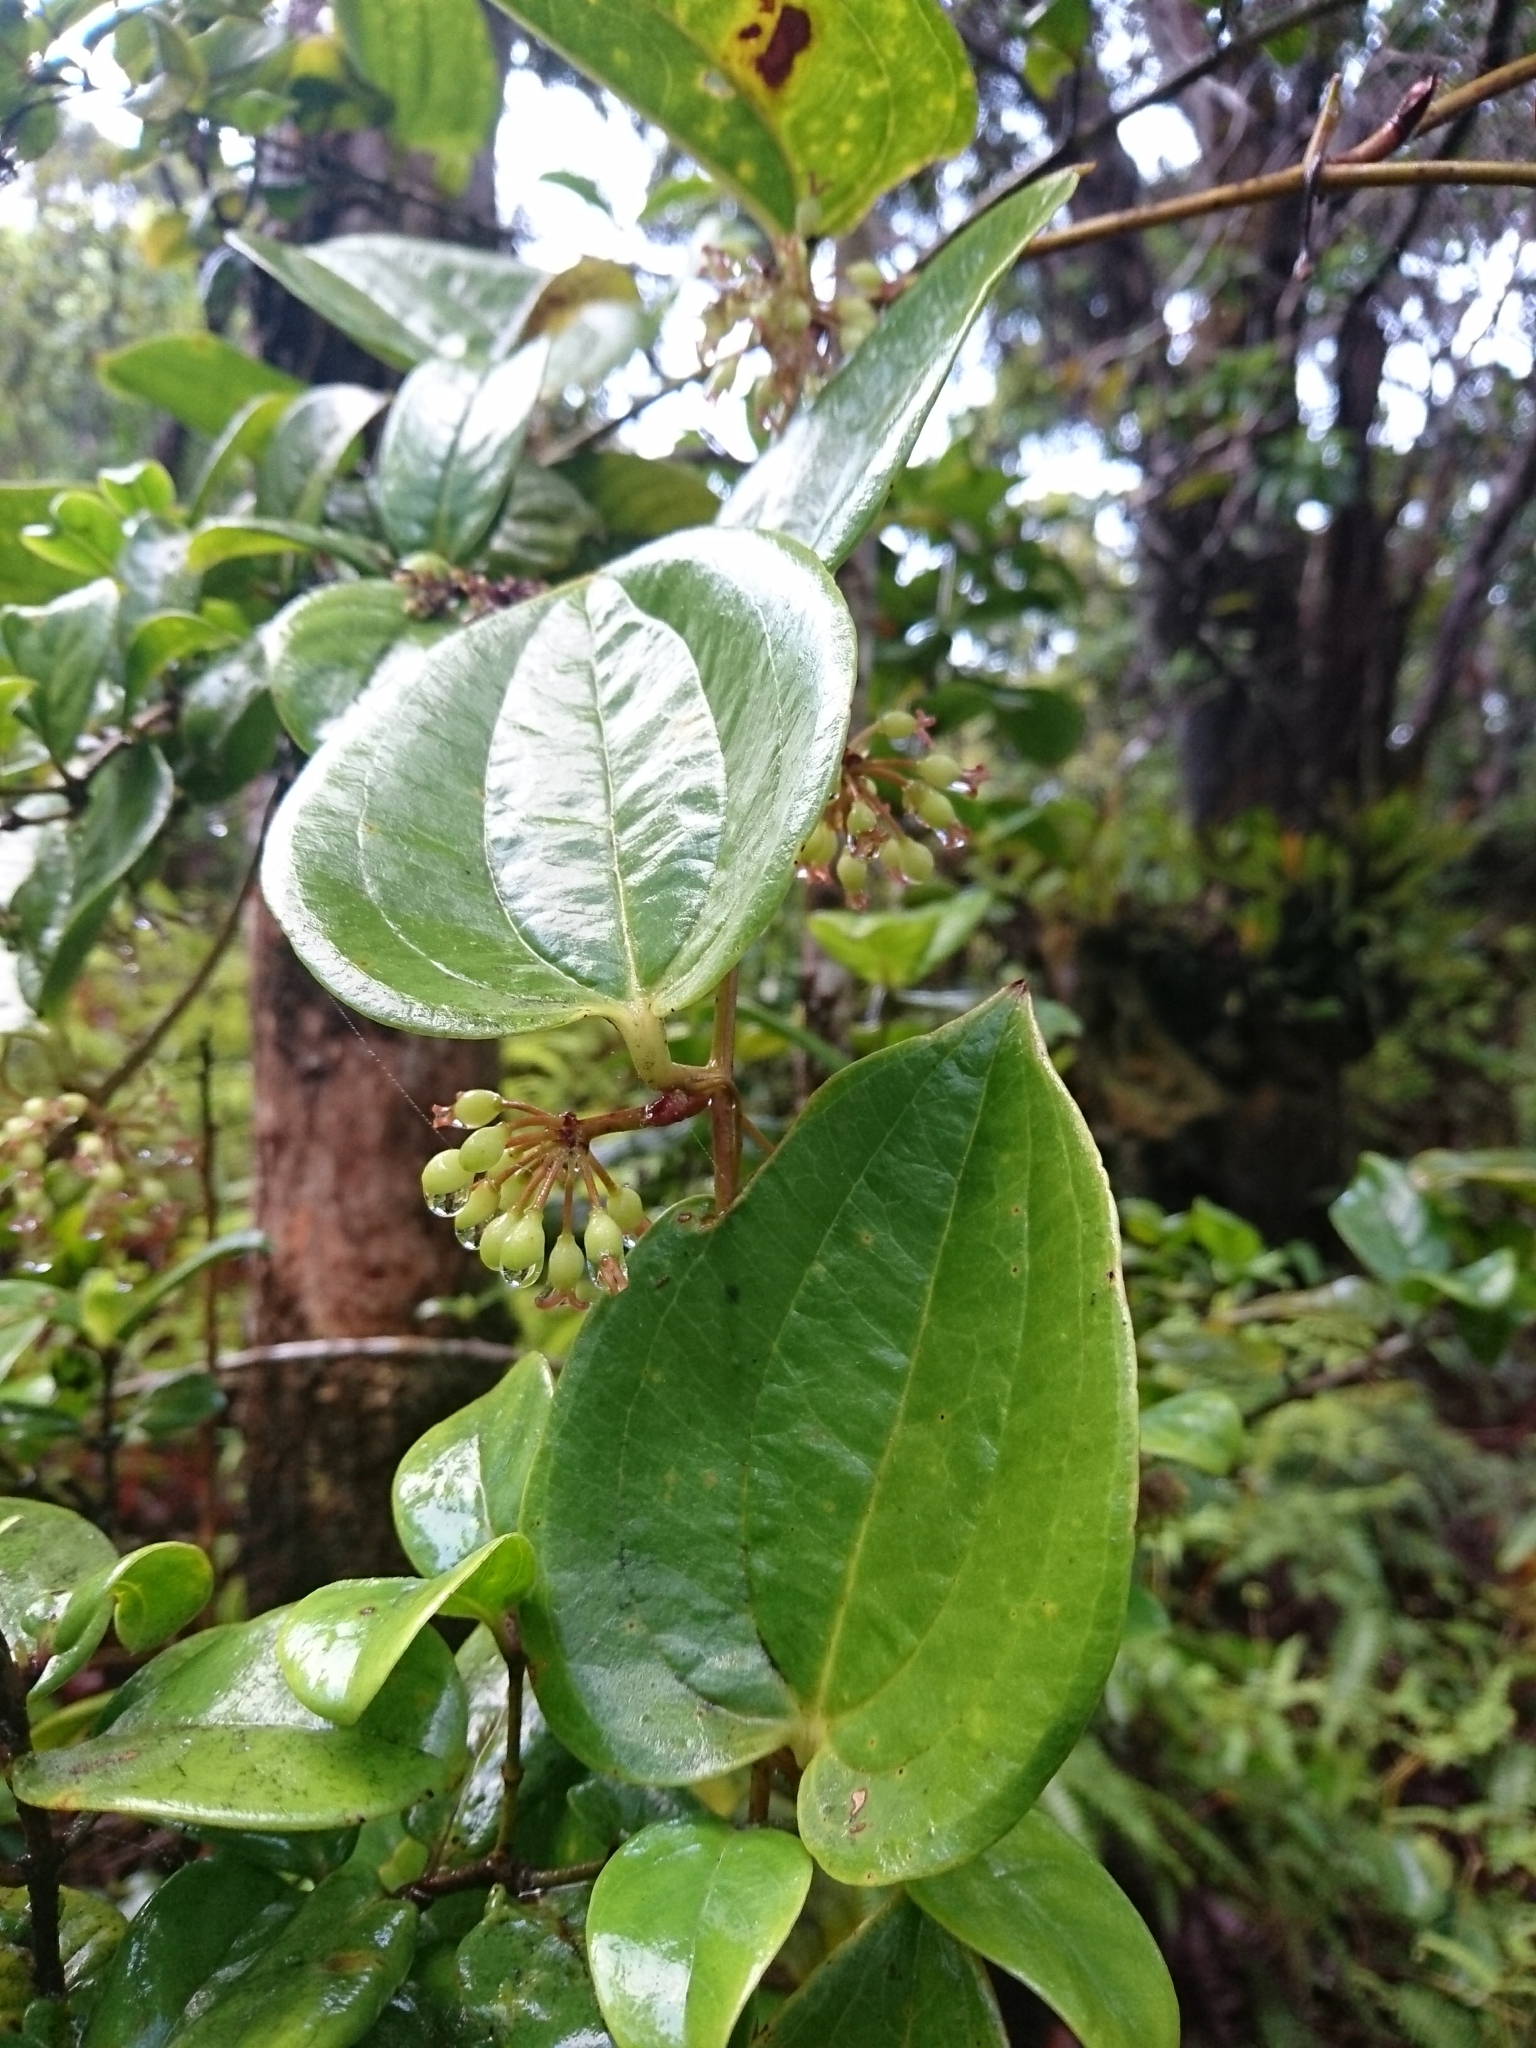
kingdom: Plantae
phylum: Tracheophyta
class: Liliopsida
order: Liliales
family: Smilacaceae
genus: Smilax
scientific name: Smilax melastomifolia
